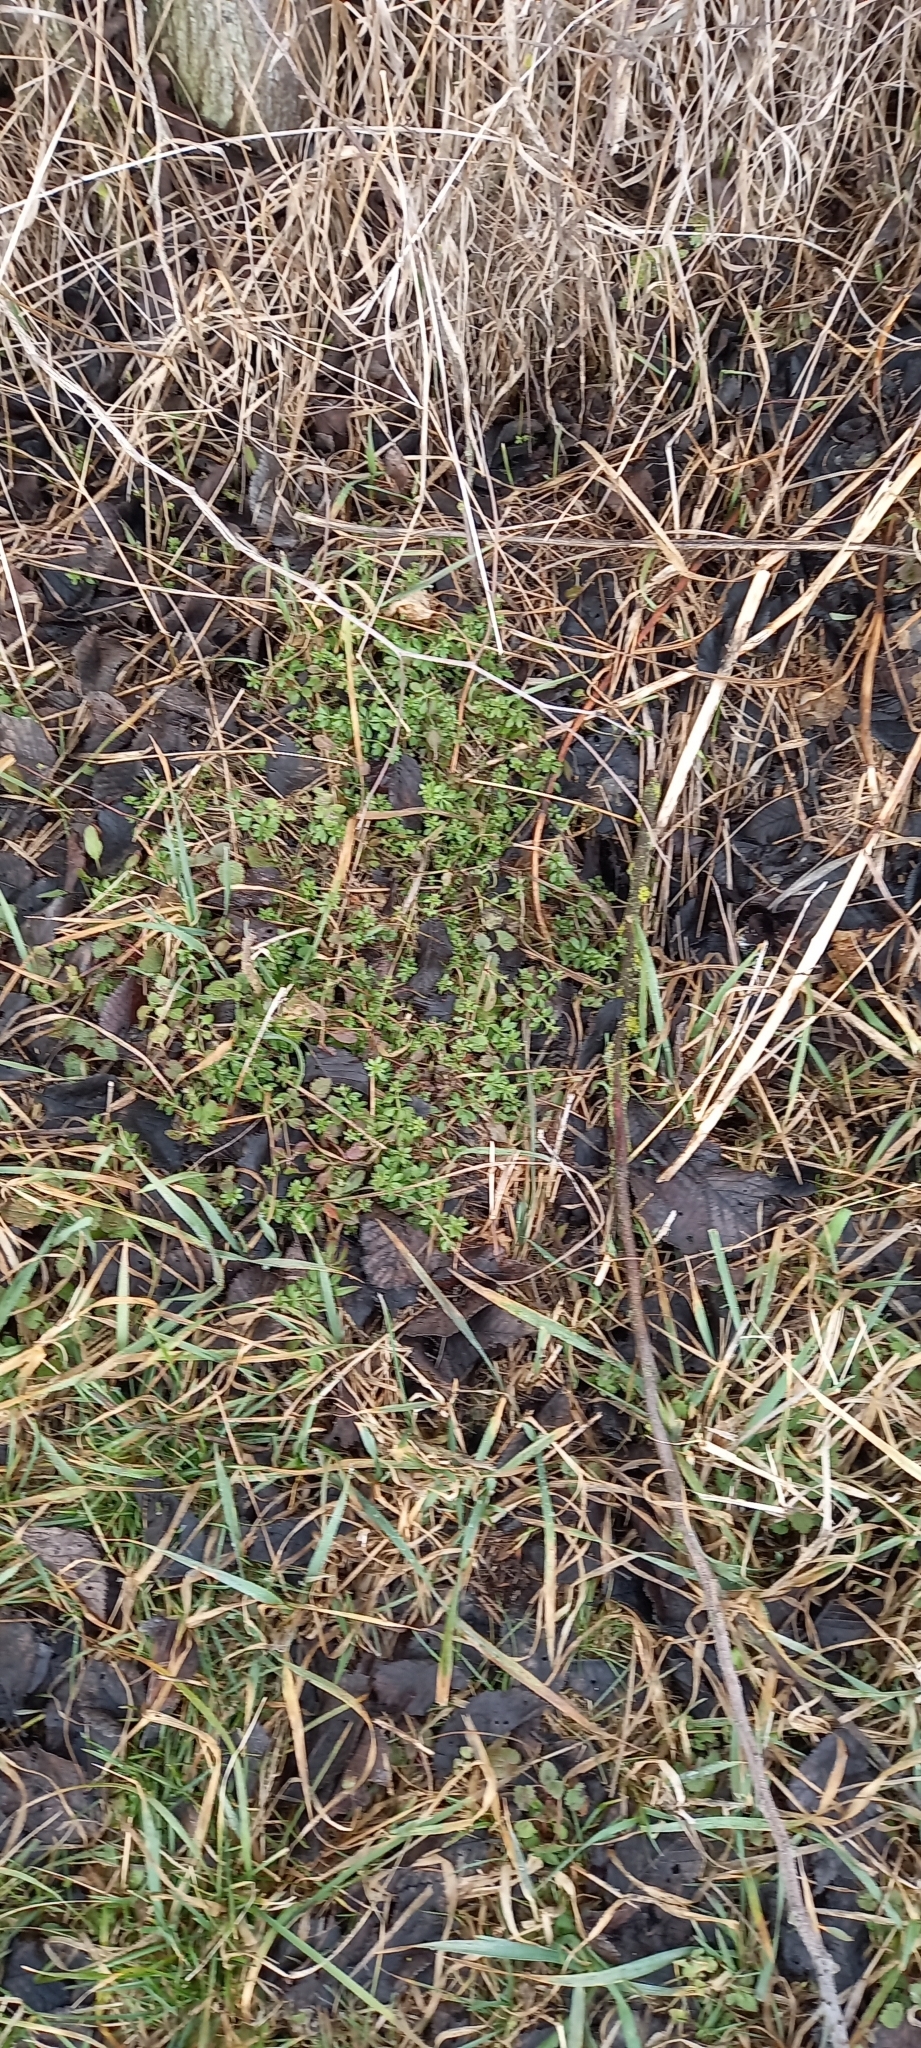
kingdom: Plantae
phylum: Tracheophyta
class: Magnoliopsida
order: Gentianales
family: Rubiaceae
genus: Galium
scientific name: Galium humifusum
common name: Spreading bedstraw
